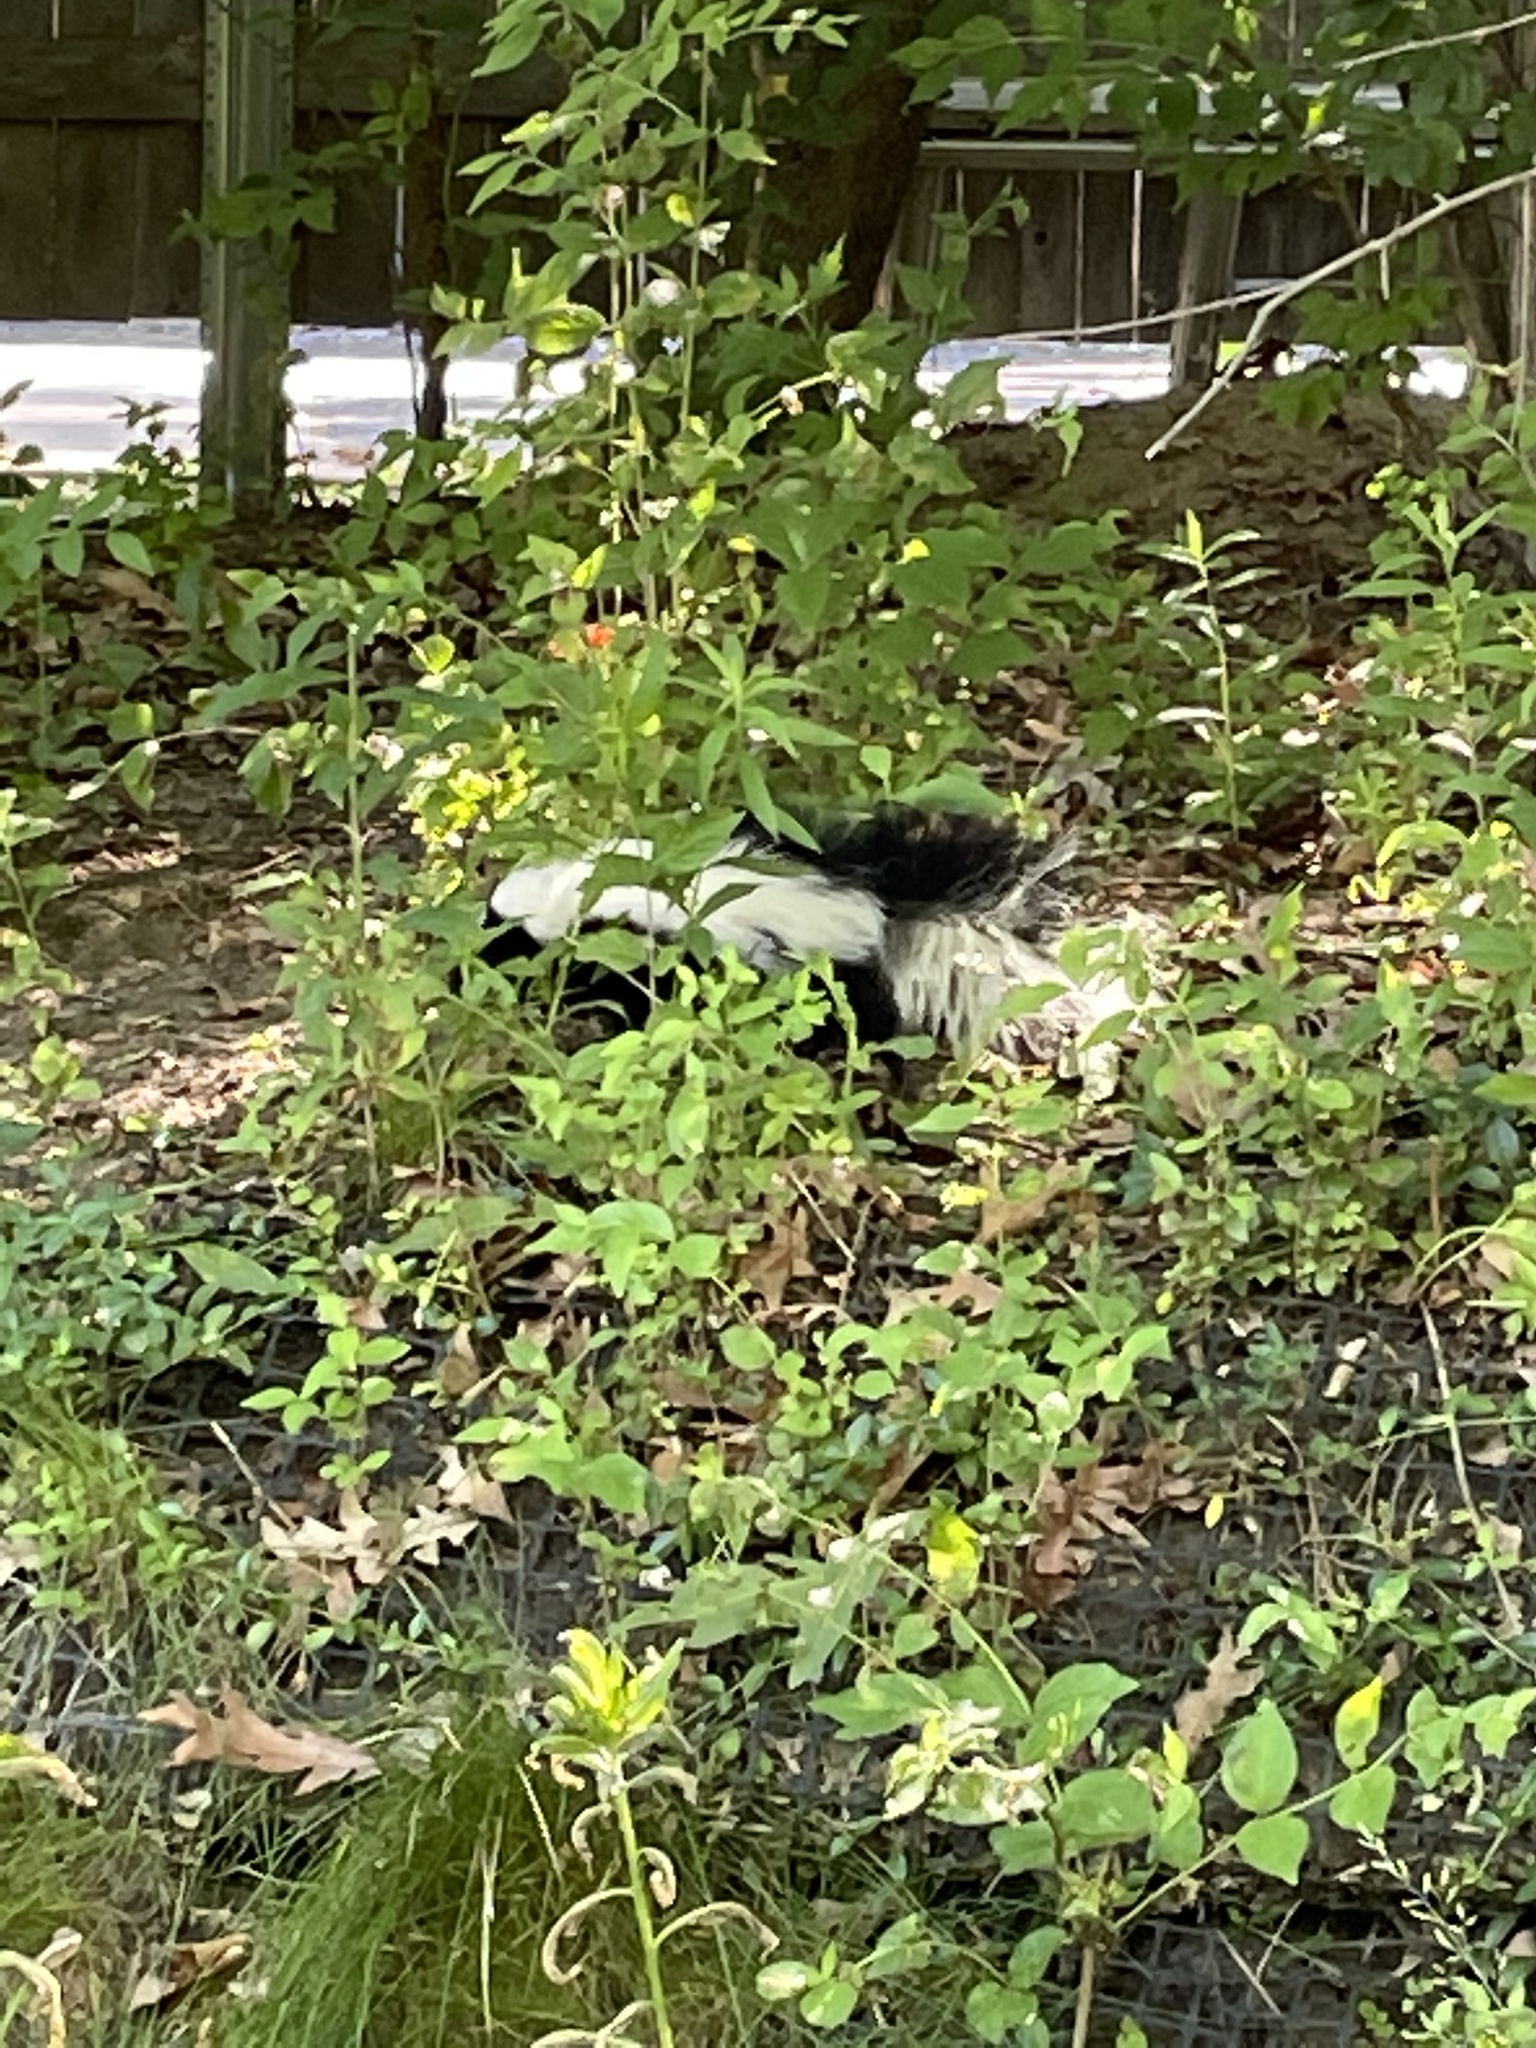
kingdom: Animalia
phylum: Chordata
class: Mammalia
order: Carnivora
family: Mephitidae
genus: Mephitis
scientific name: Mephitis mephitis
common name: Striped skunk
